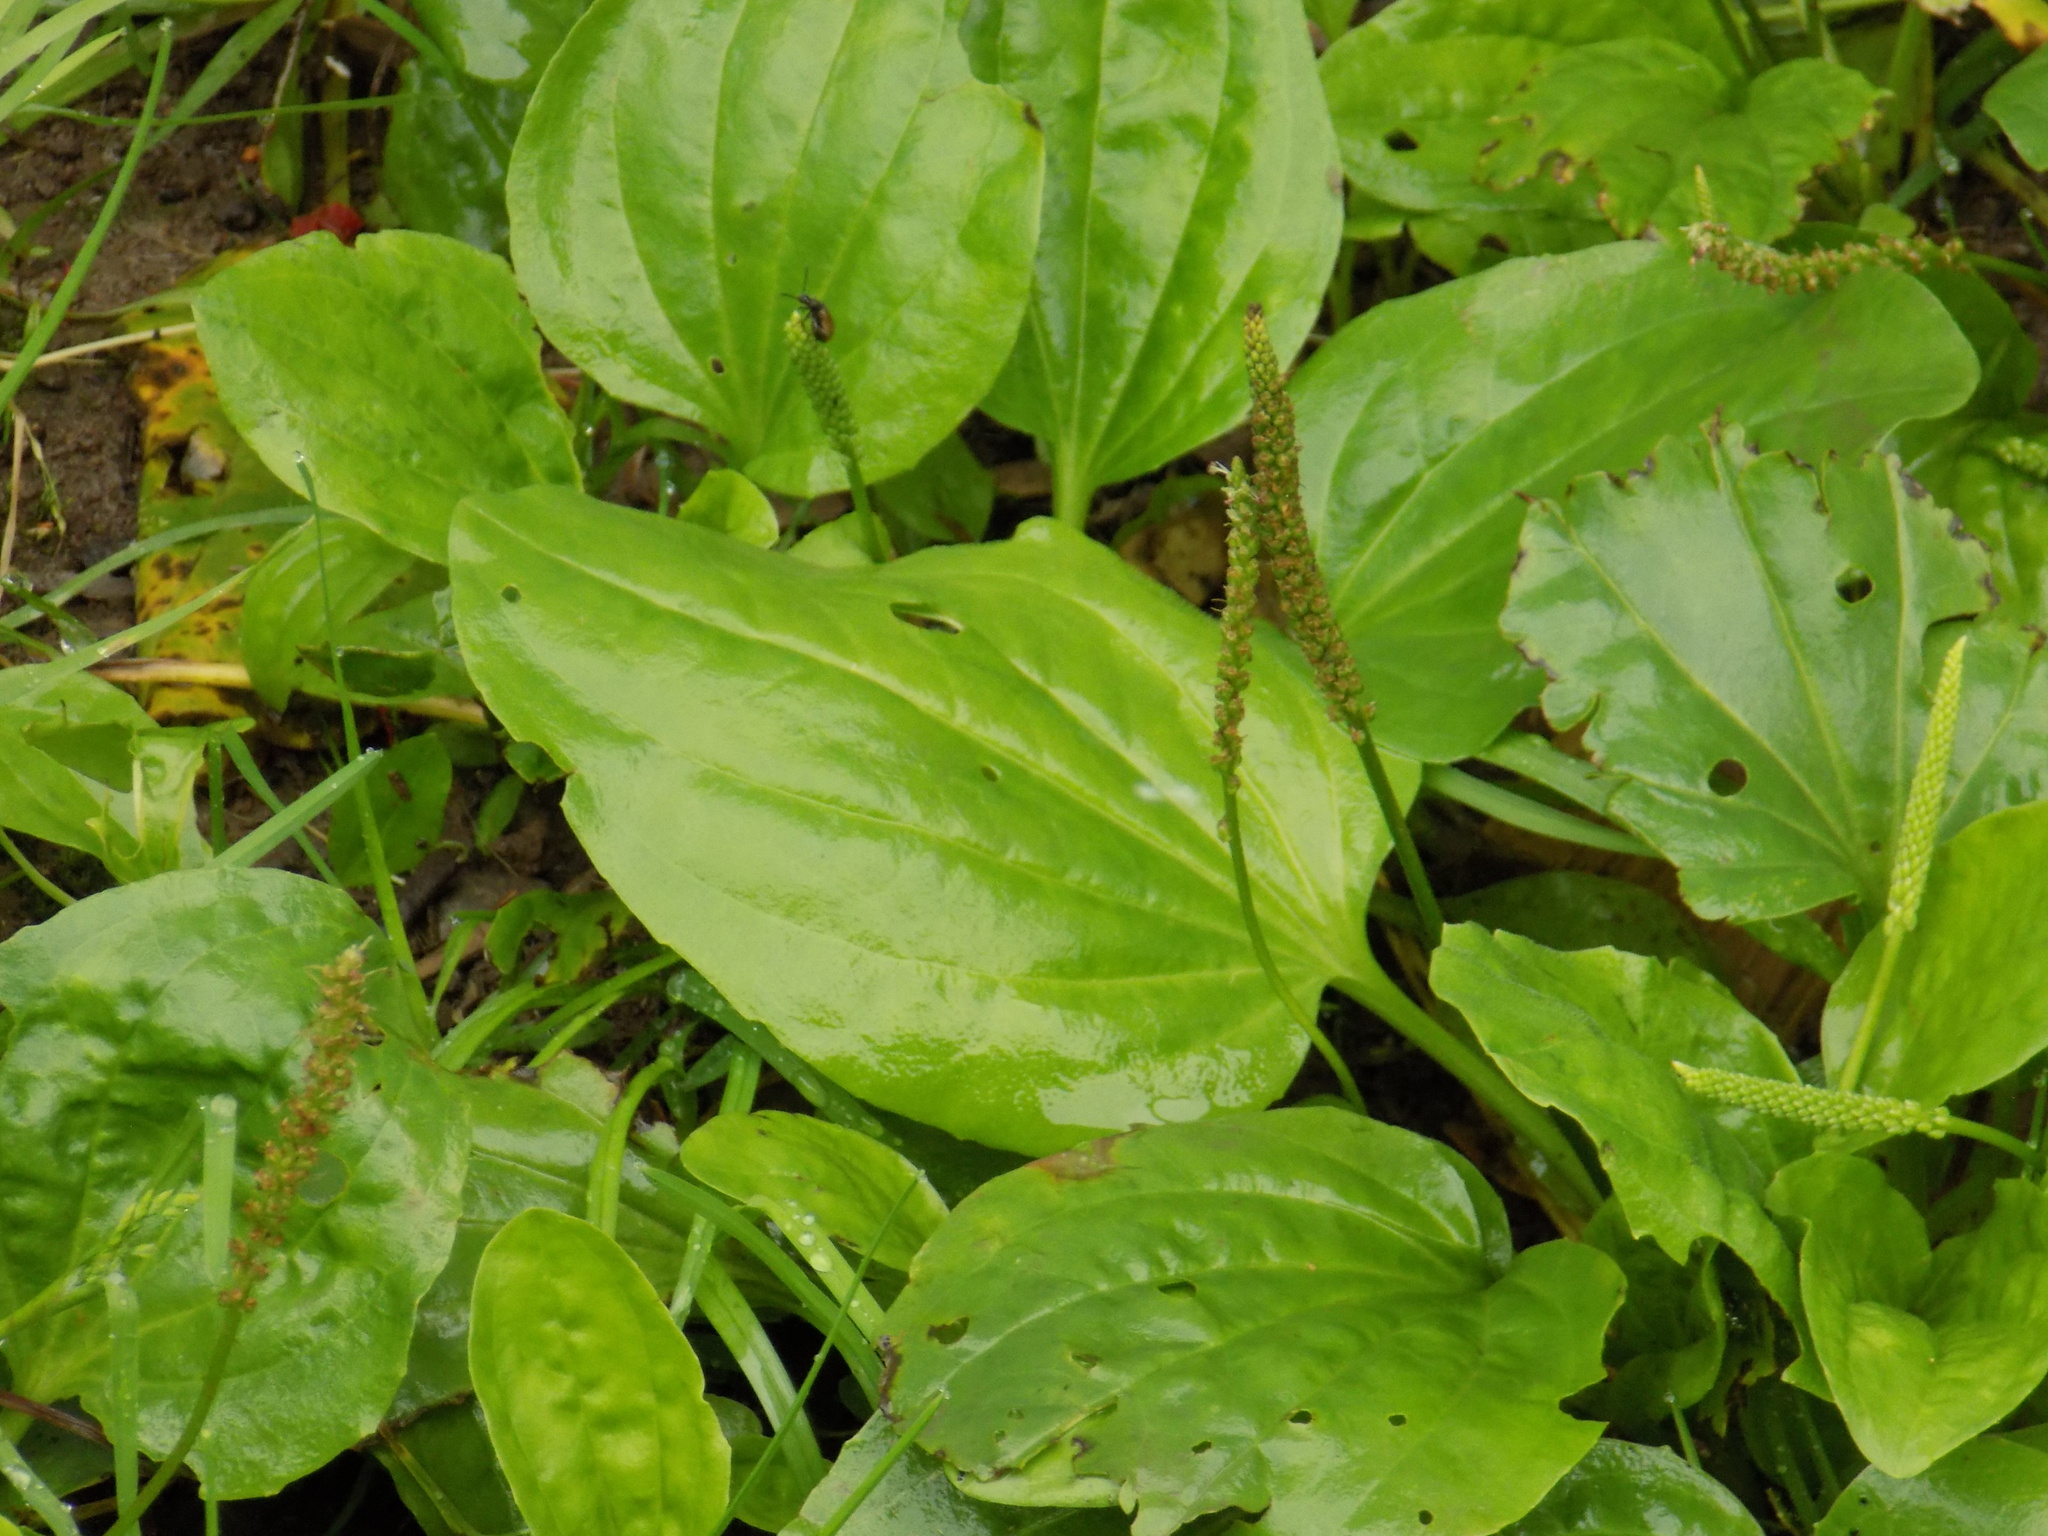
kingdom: Plantae
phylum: Tracheophyta
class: Magnoliopsida
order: Lamiales
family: Plantaginaceae
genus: Plantago
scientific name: Plantago major
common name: Common plantain
